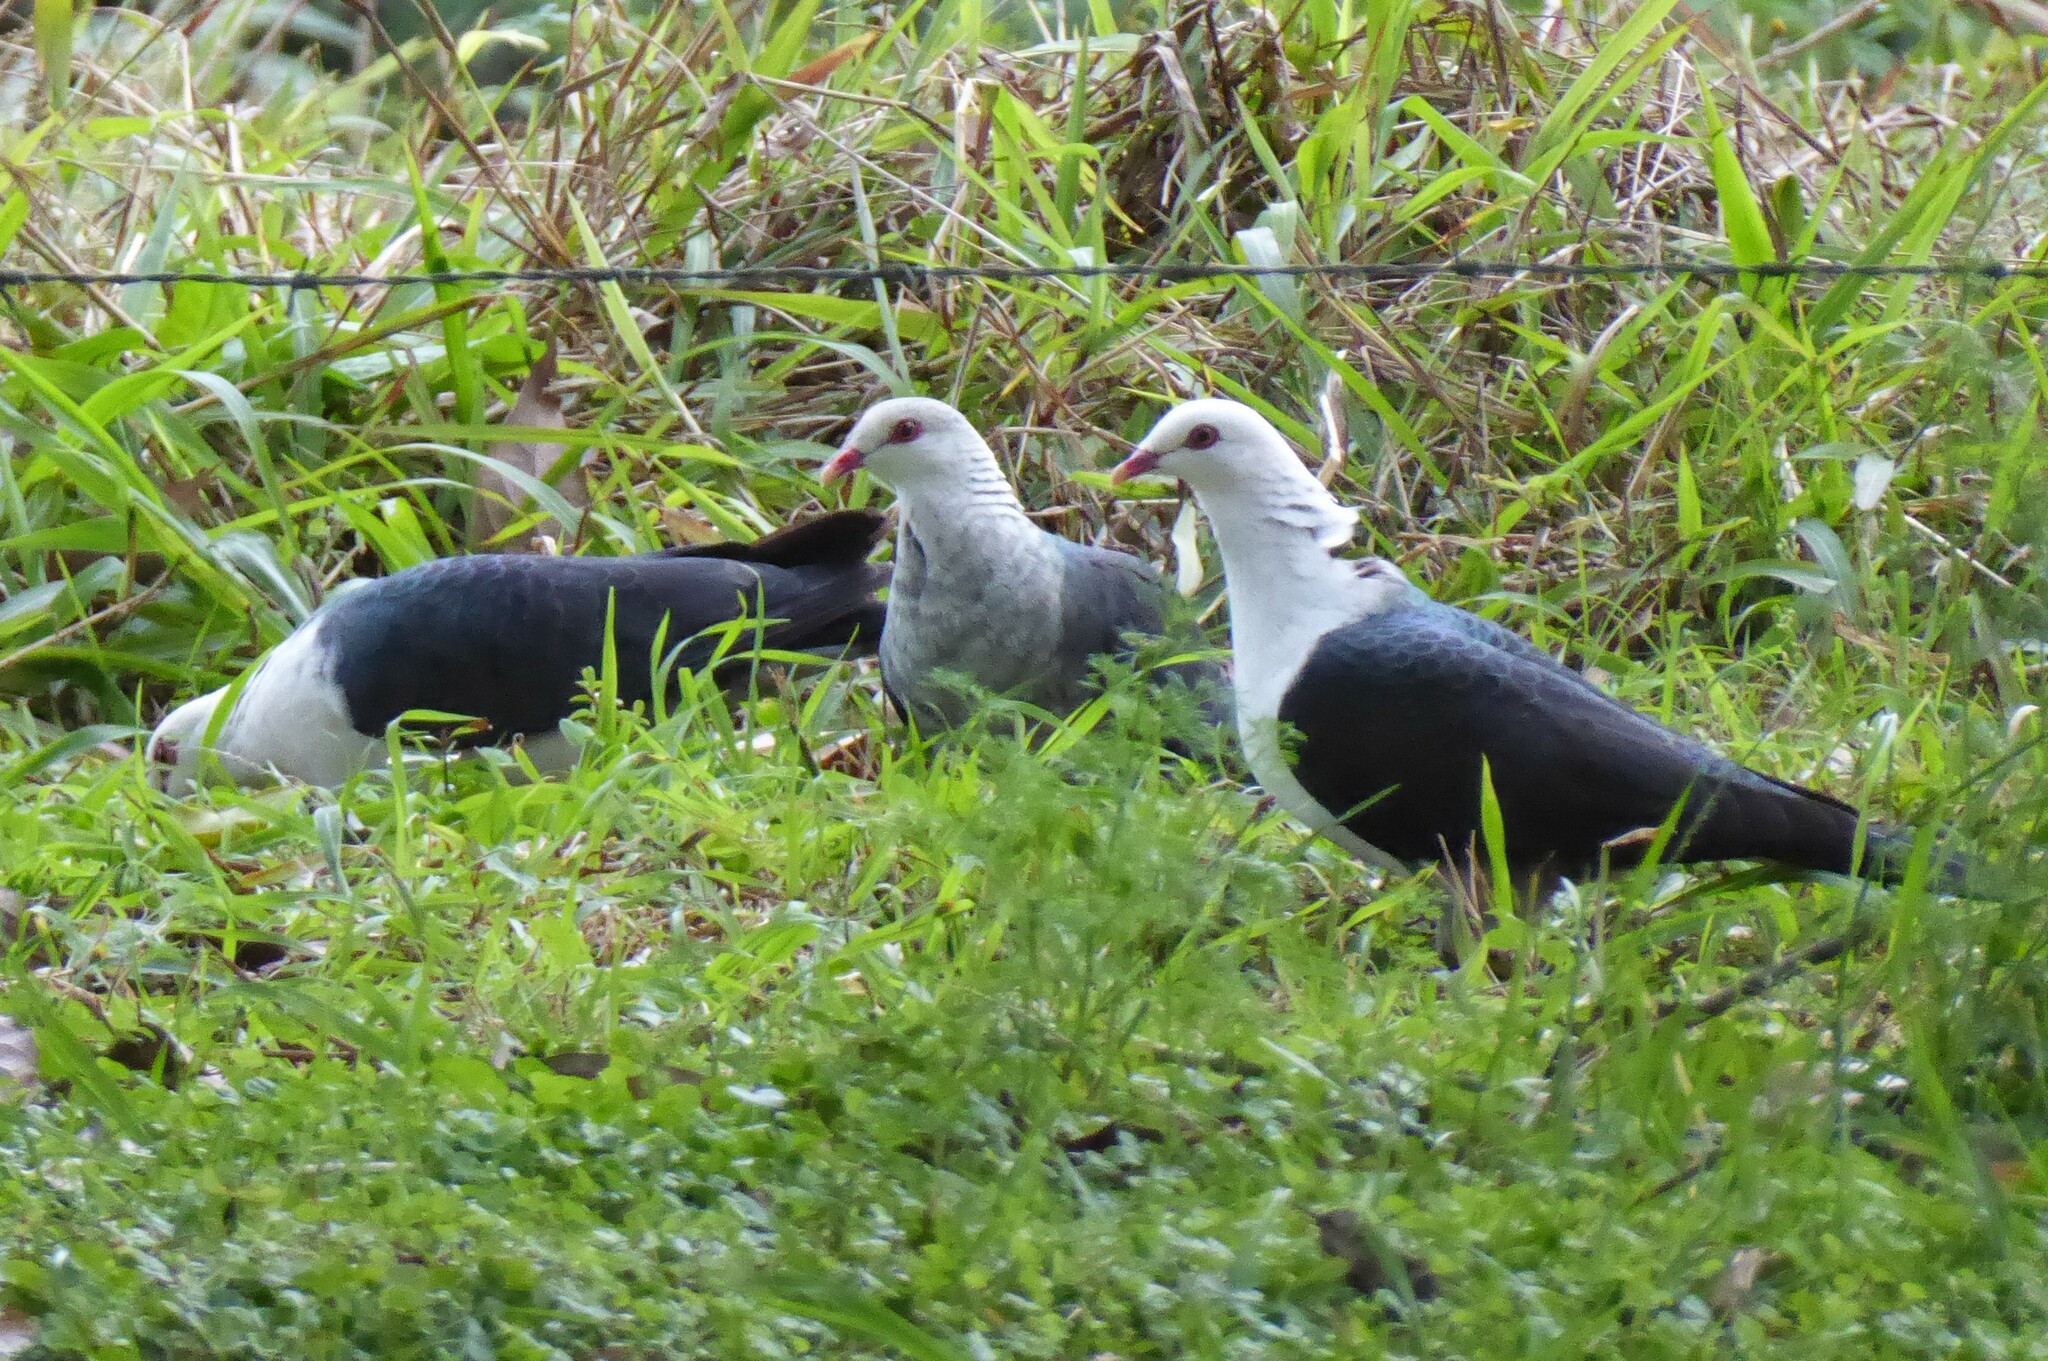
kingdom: Animalia
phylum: Chordata
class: Aves
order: Columbiformes
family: Columbidae
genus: Columba
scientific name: Columba leucomela
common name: White-headed pigeon
